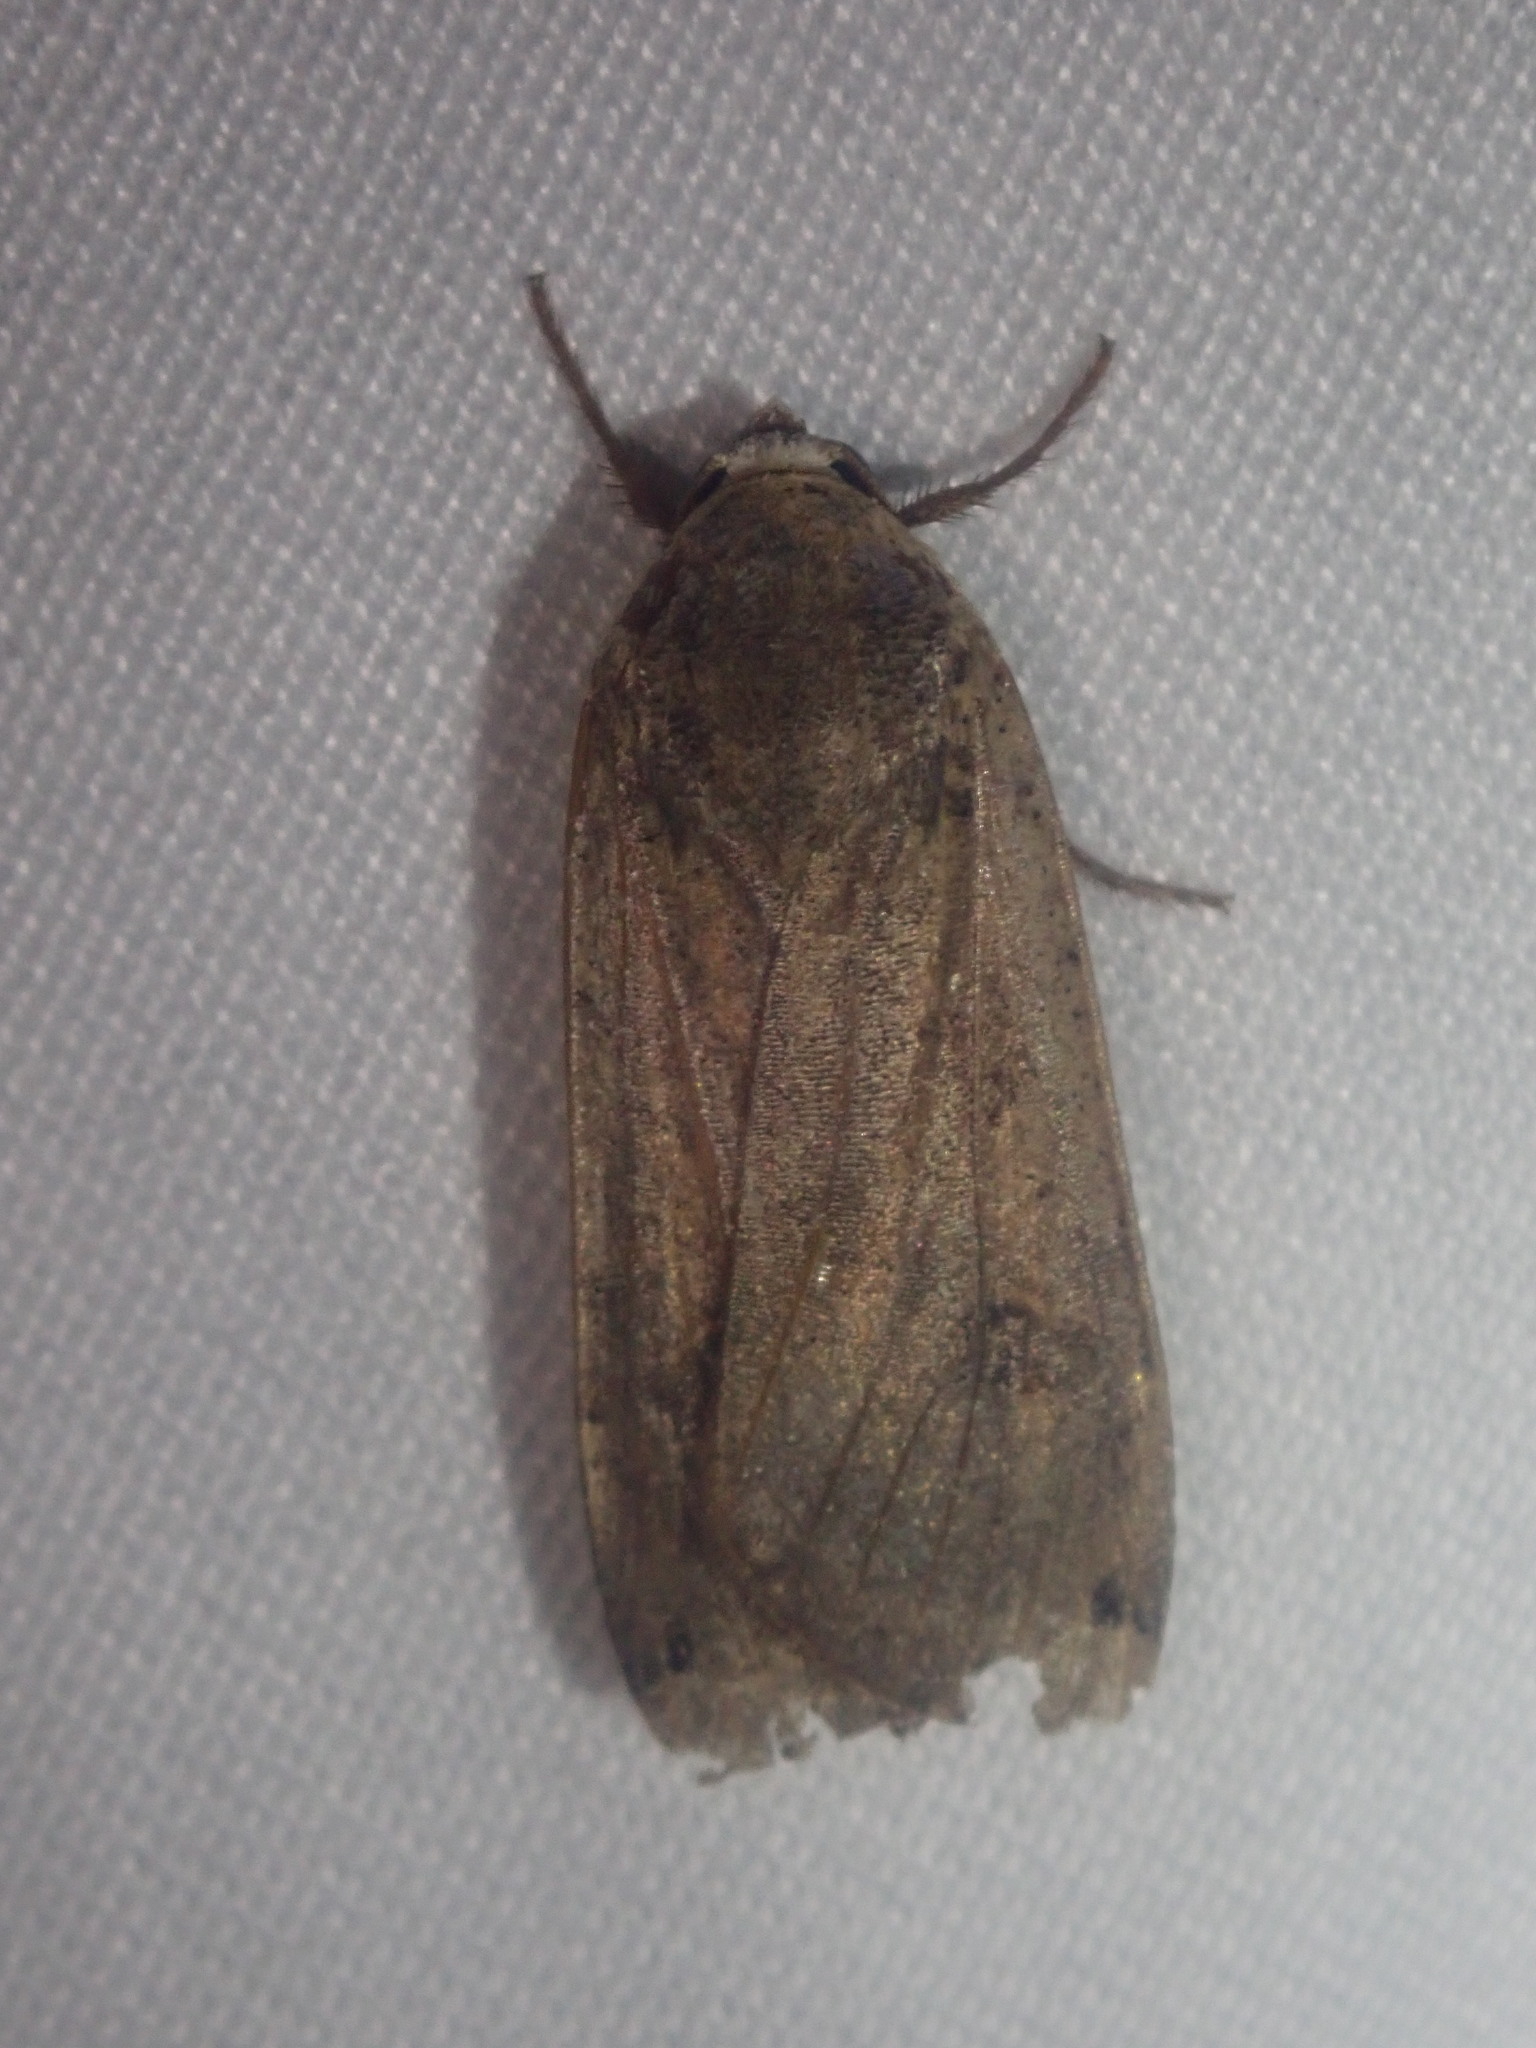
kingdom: Animalia
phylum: Arthropoda
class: Insecta
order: Lepidoptera
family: Noctuidae
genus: Noctua
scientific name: Noctua pronuba
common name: Large yellow underwing
